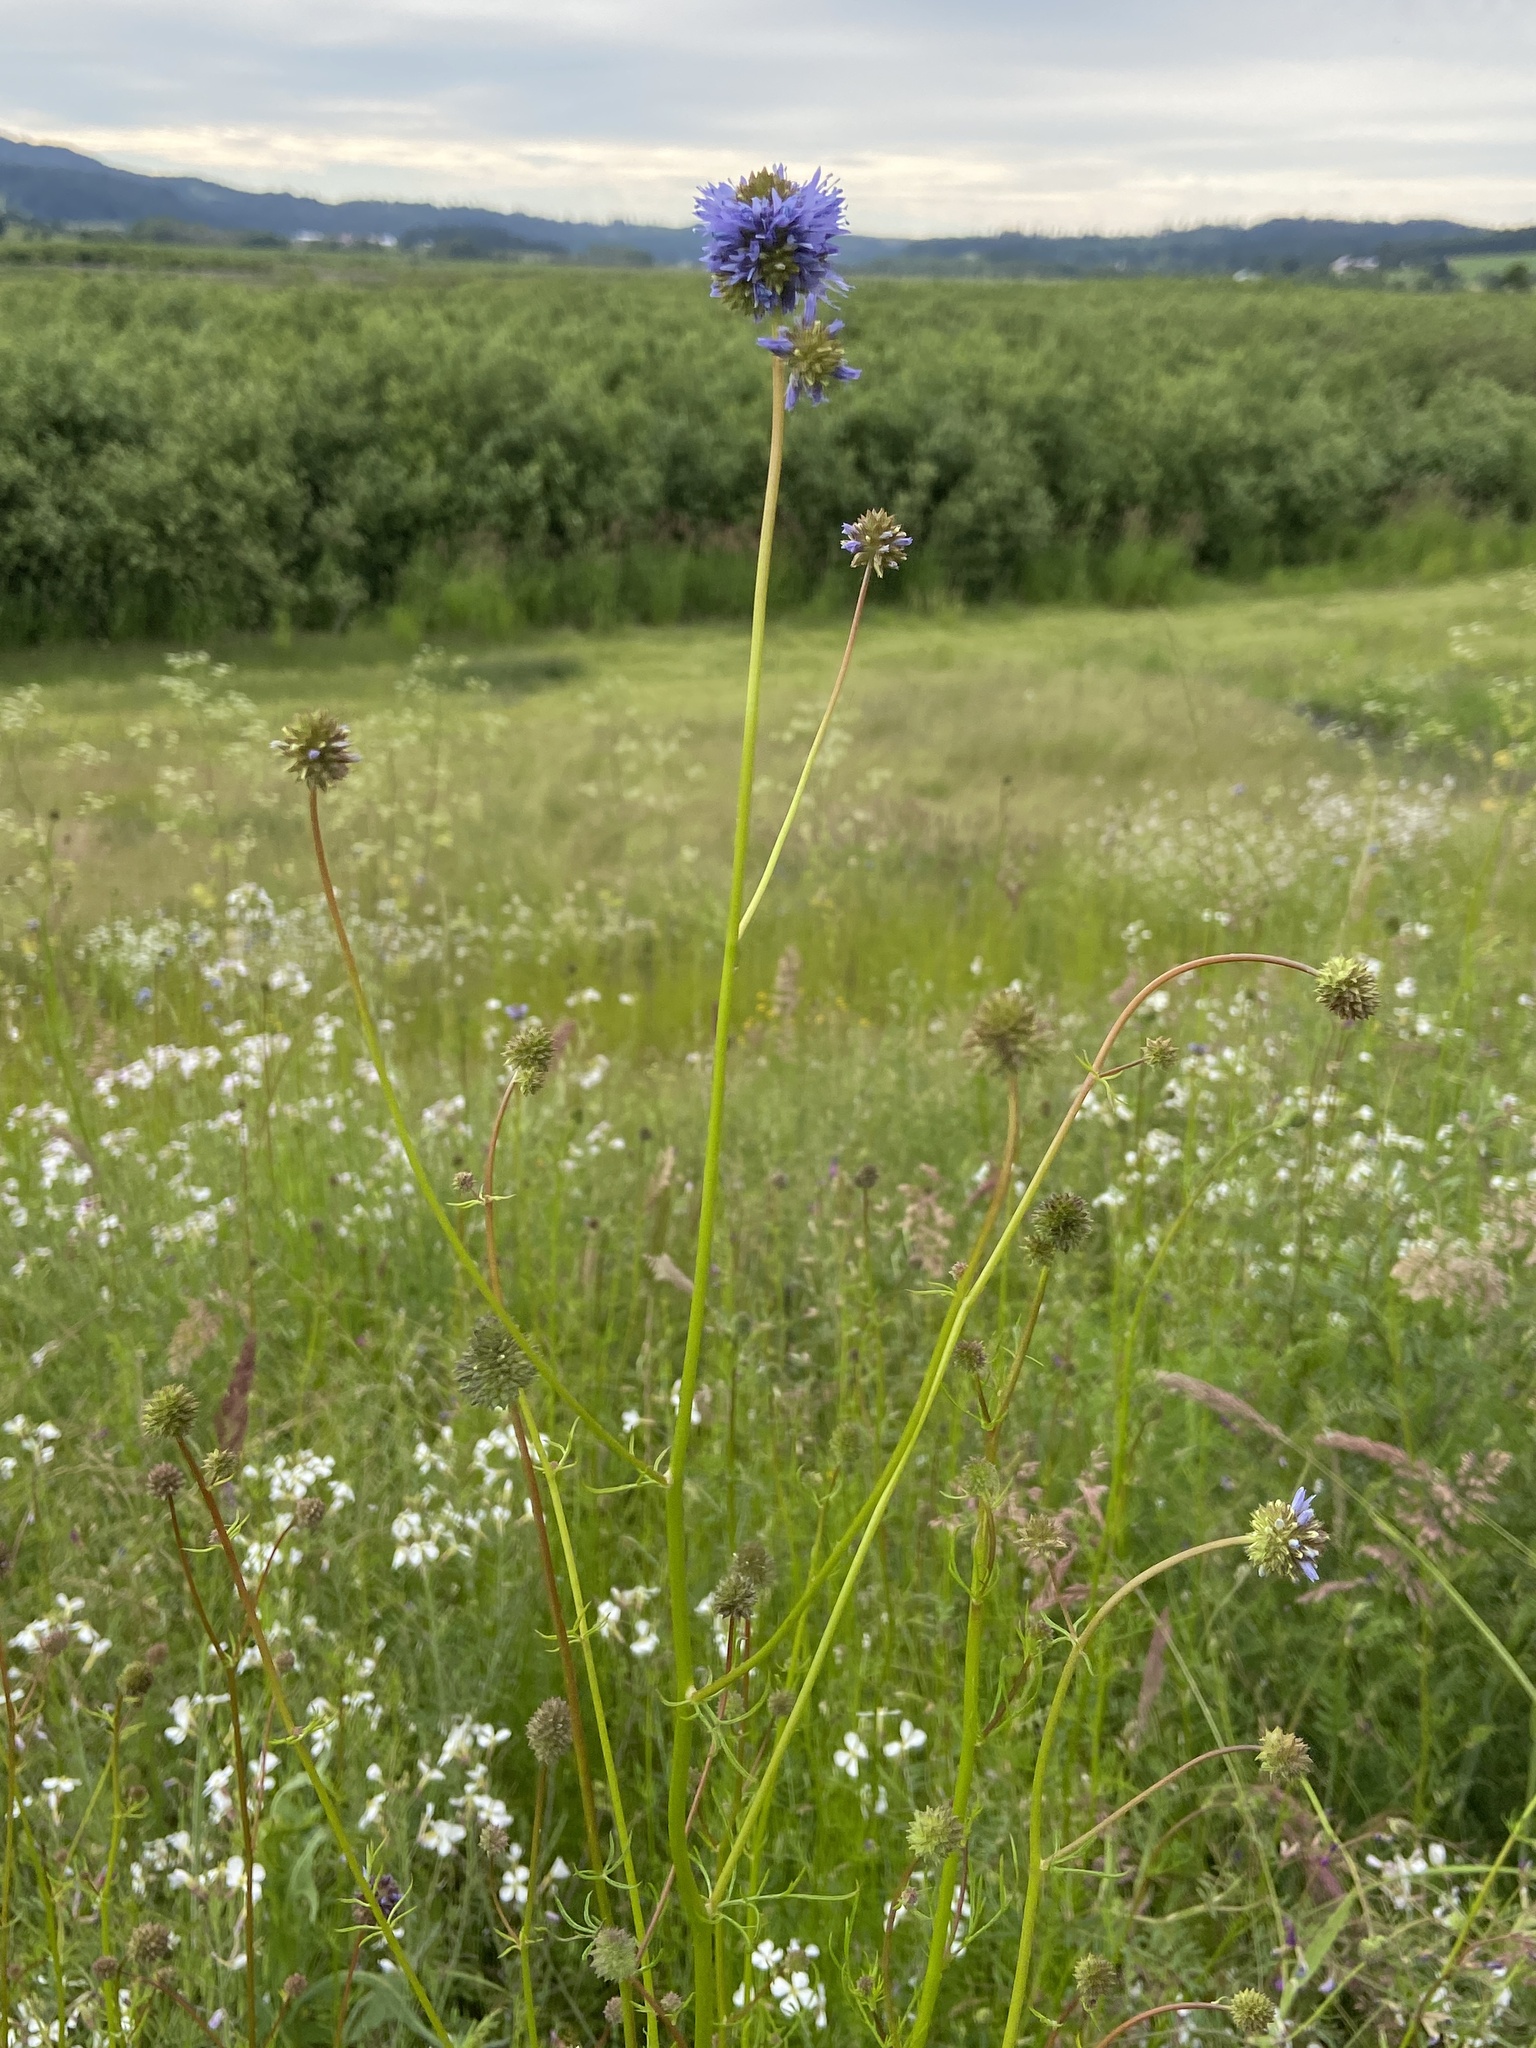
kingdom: Plantae
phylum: Tracheophyta
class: Magnoliopsida
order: Ericales
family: Polemoniaceae
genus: Gilia
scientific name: Gilia capitata
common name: Bluehead gilia
